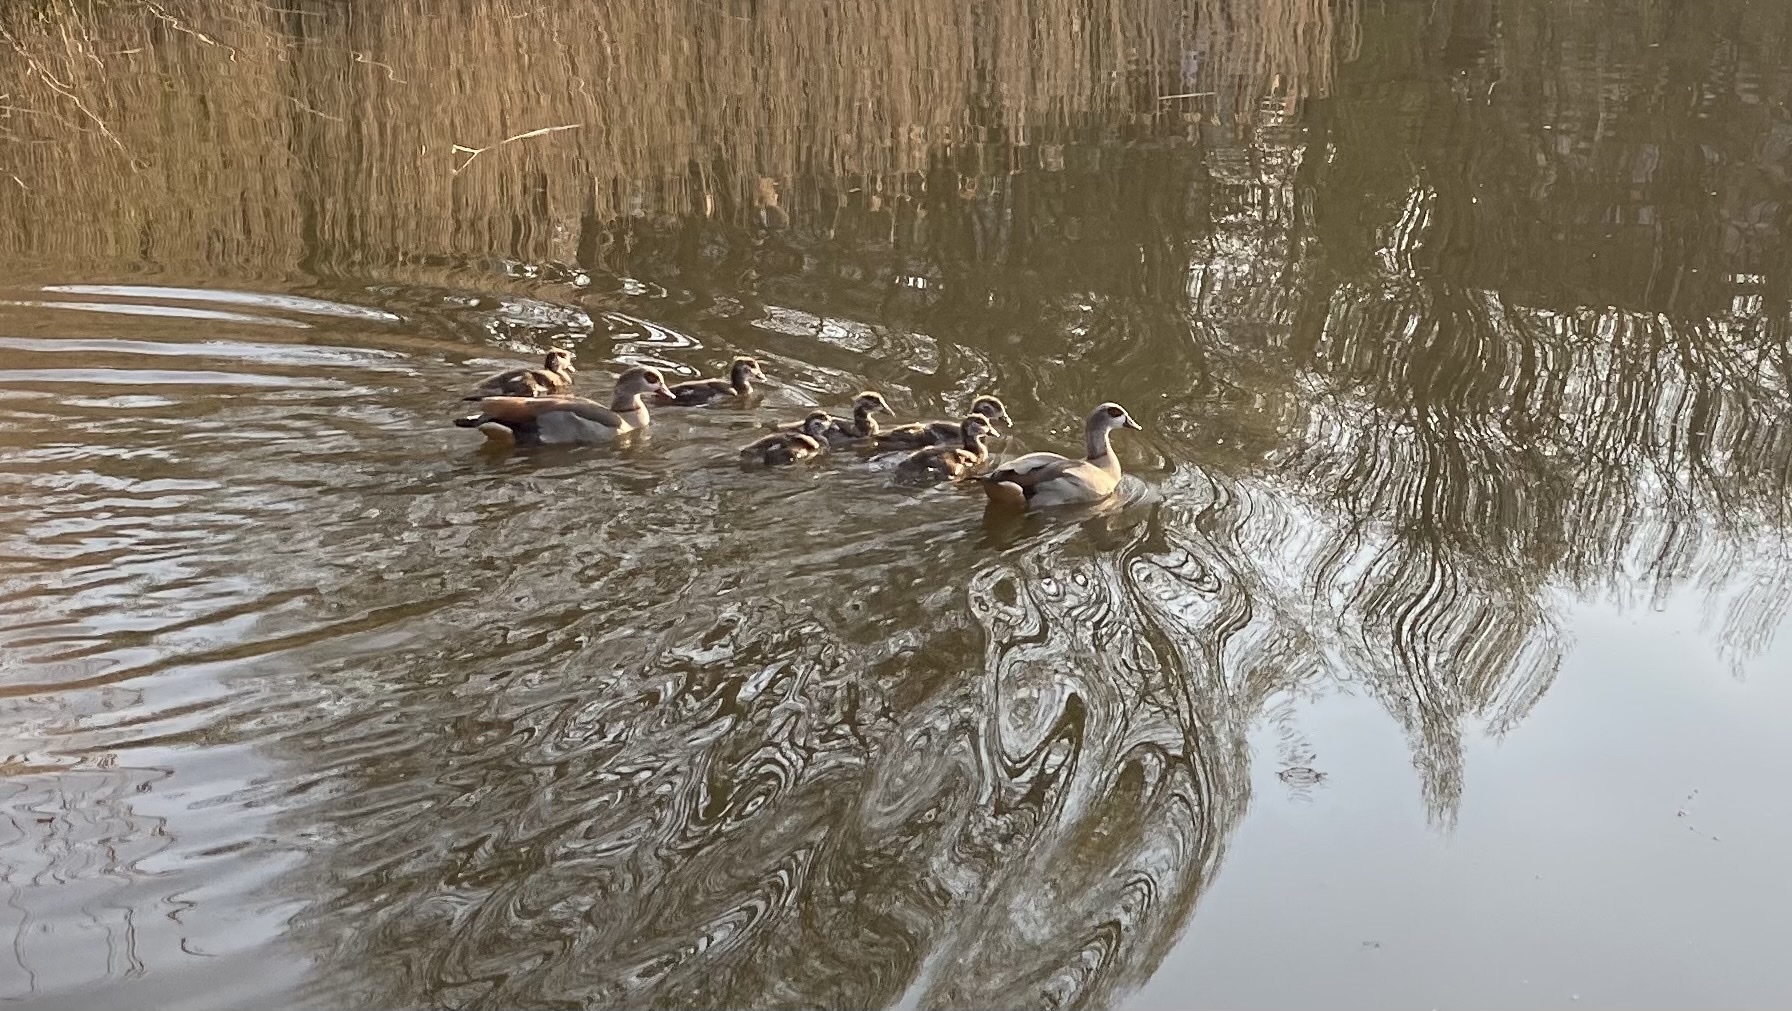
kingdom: Animalia
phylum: Chordata
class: Aves
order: Anseriformes
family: Anatidae
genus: Alopochen
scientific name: Alopochen aegyptiaca
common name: Egyptian goose
